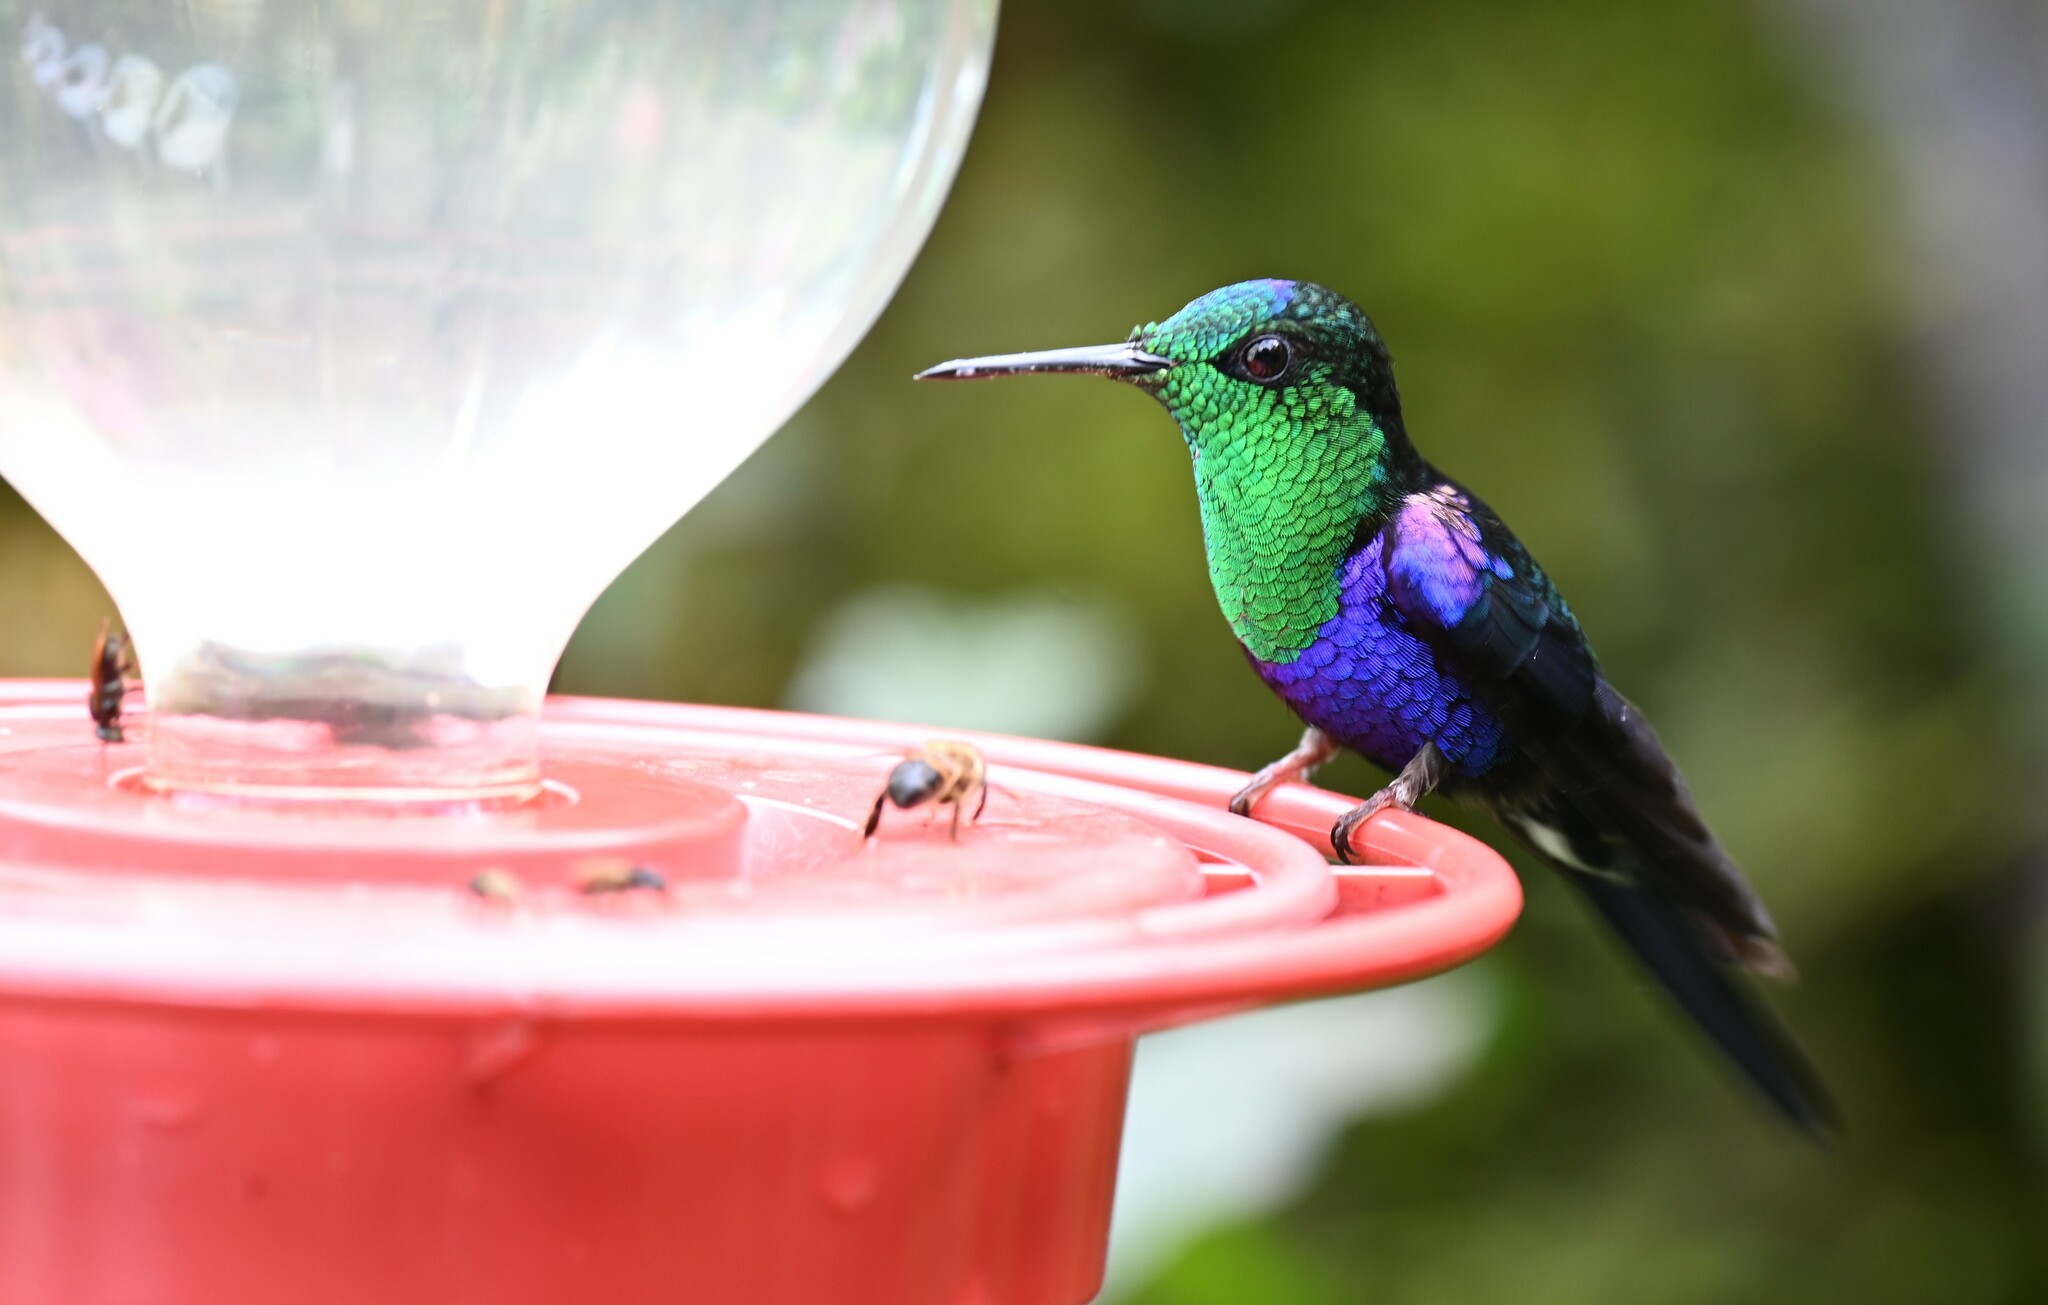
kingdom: Animalia
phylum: Chordata
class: Aves
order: Apodiformes
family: Trochilidae
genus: Thalurania
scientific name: Thalurania colombica
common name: Crowned woodnymph
